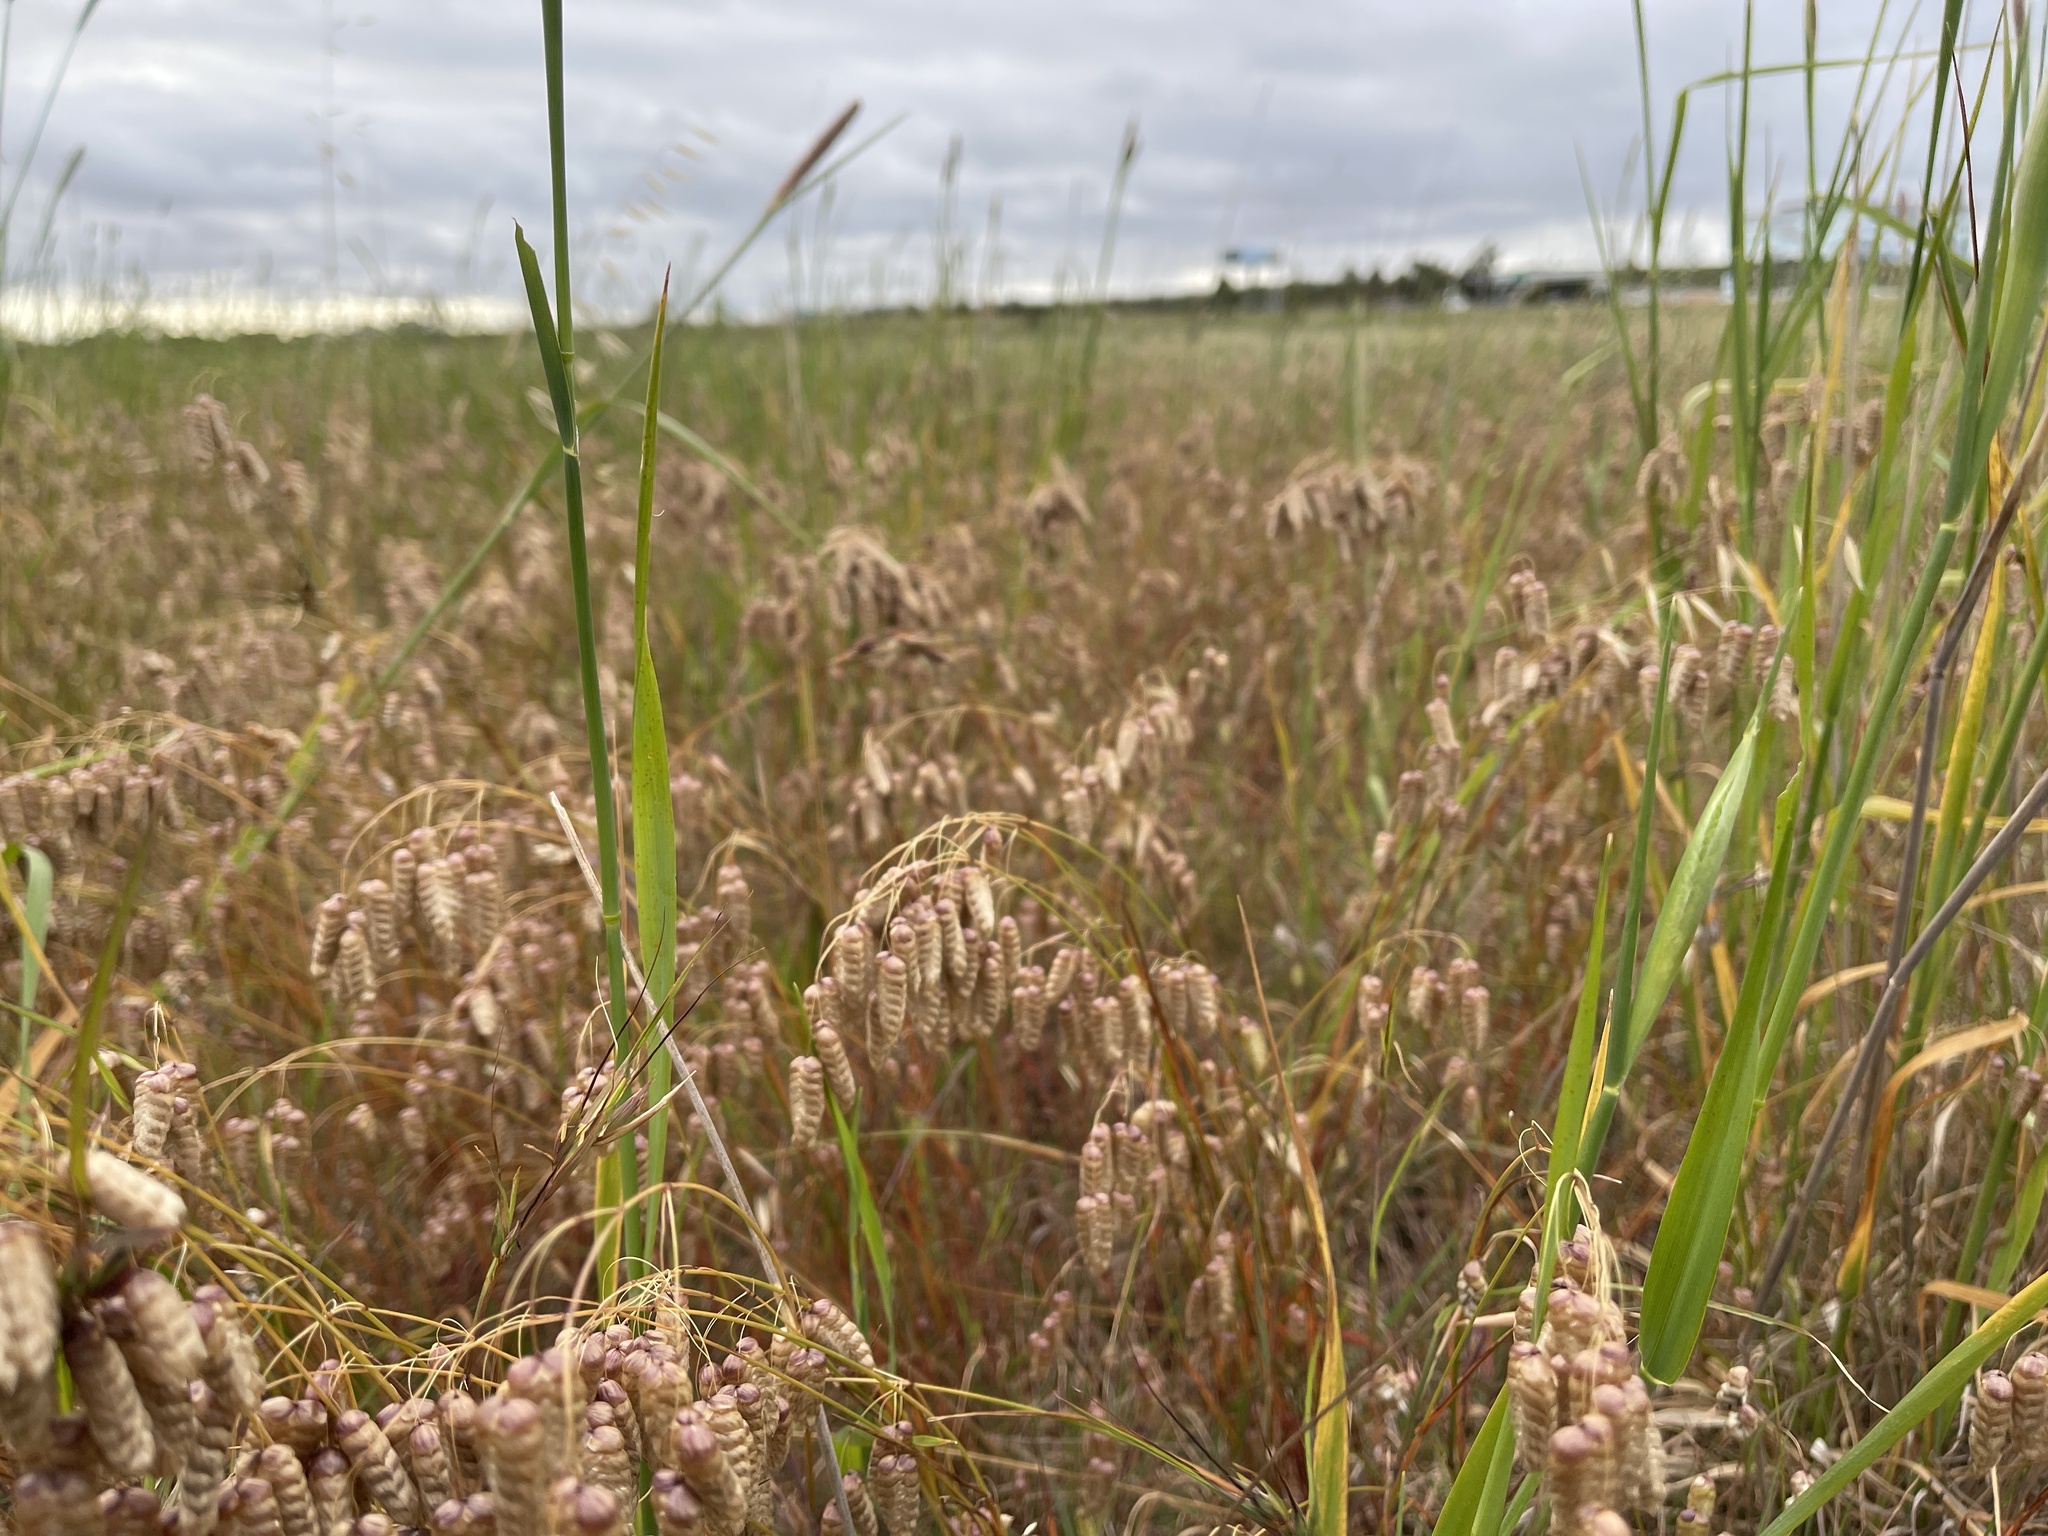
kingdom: Plantae
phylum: Tracheophyta
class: Liliopsida
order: Poales
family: Poaceae
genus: Briza
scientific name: Briza maxima
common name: Big quakinggrass
